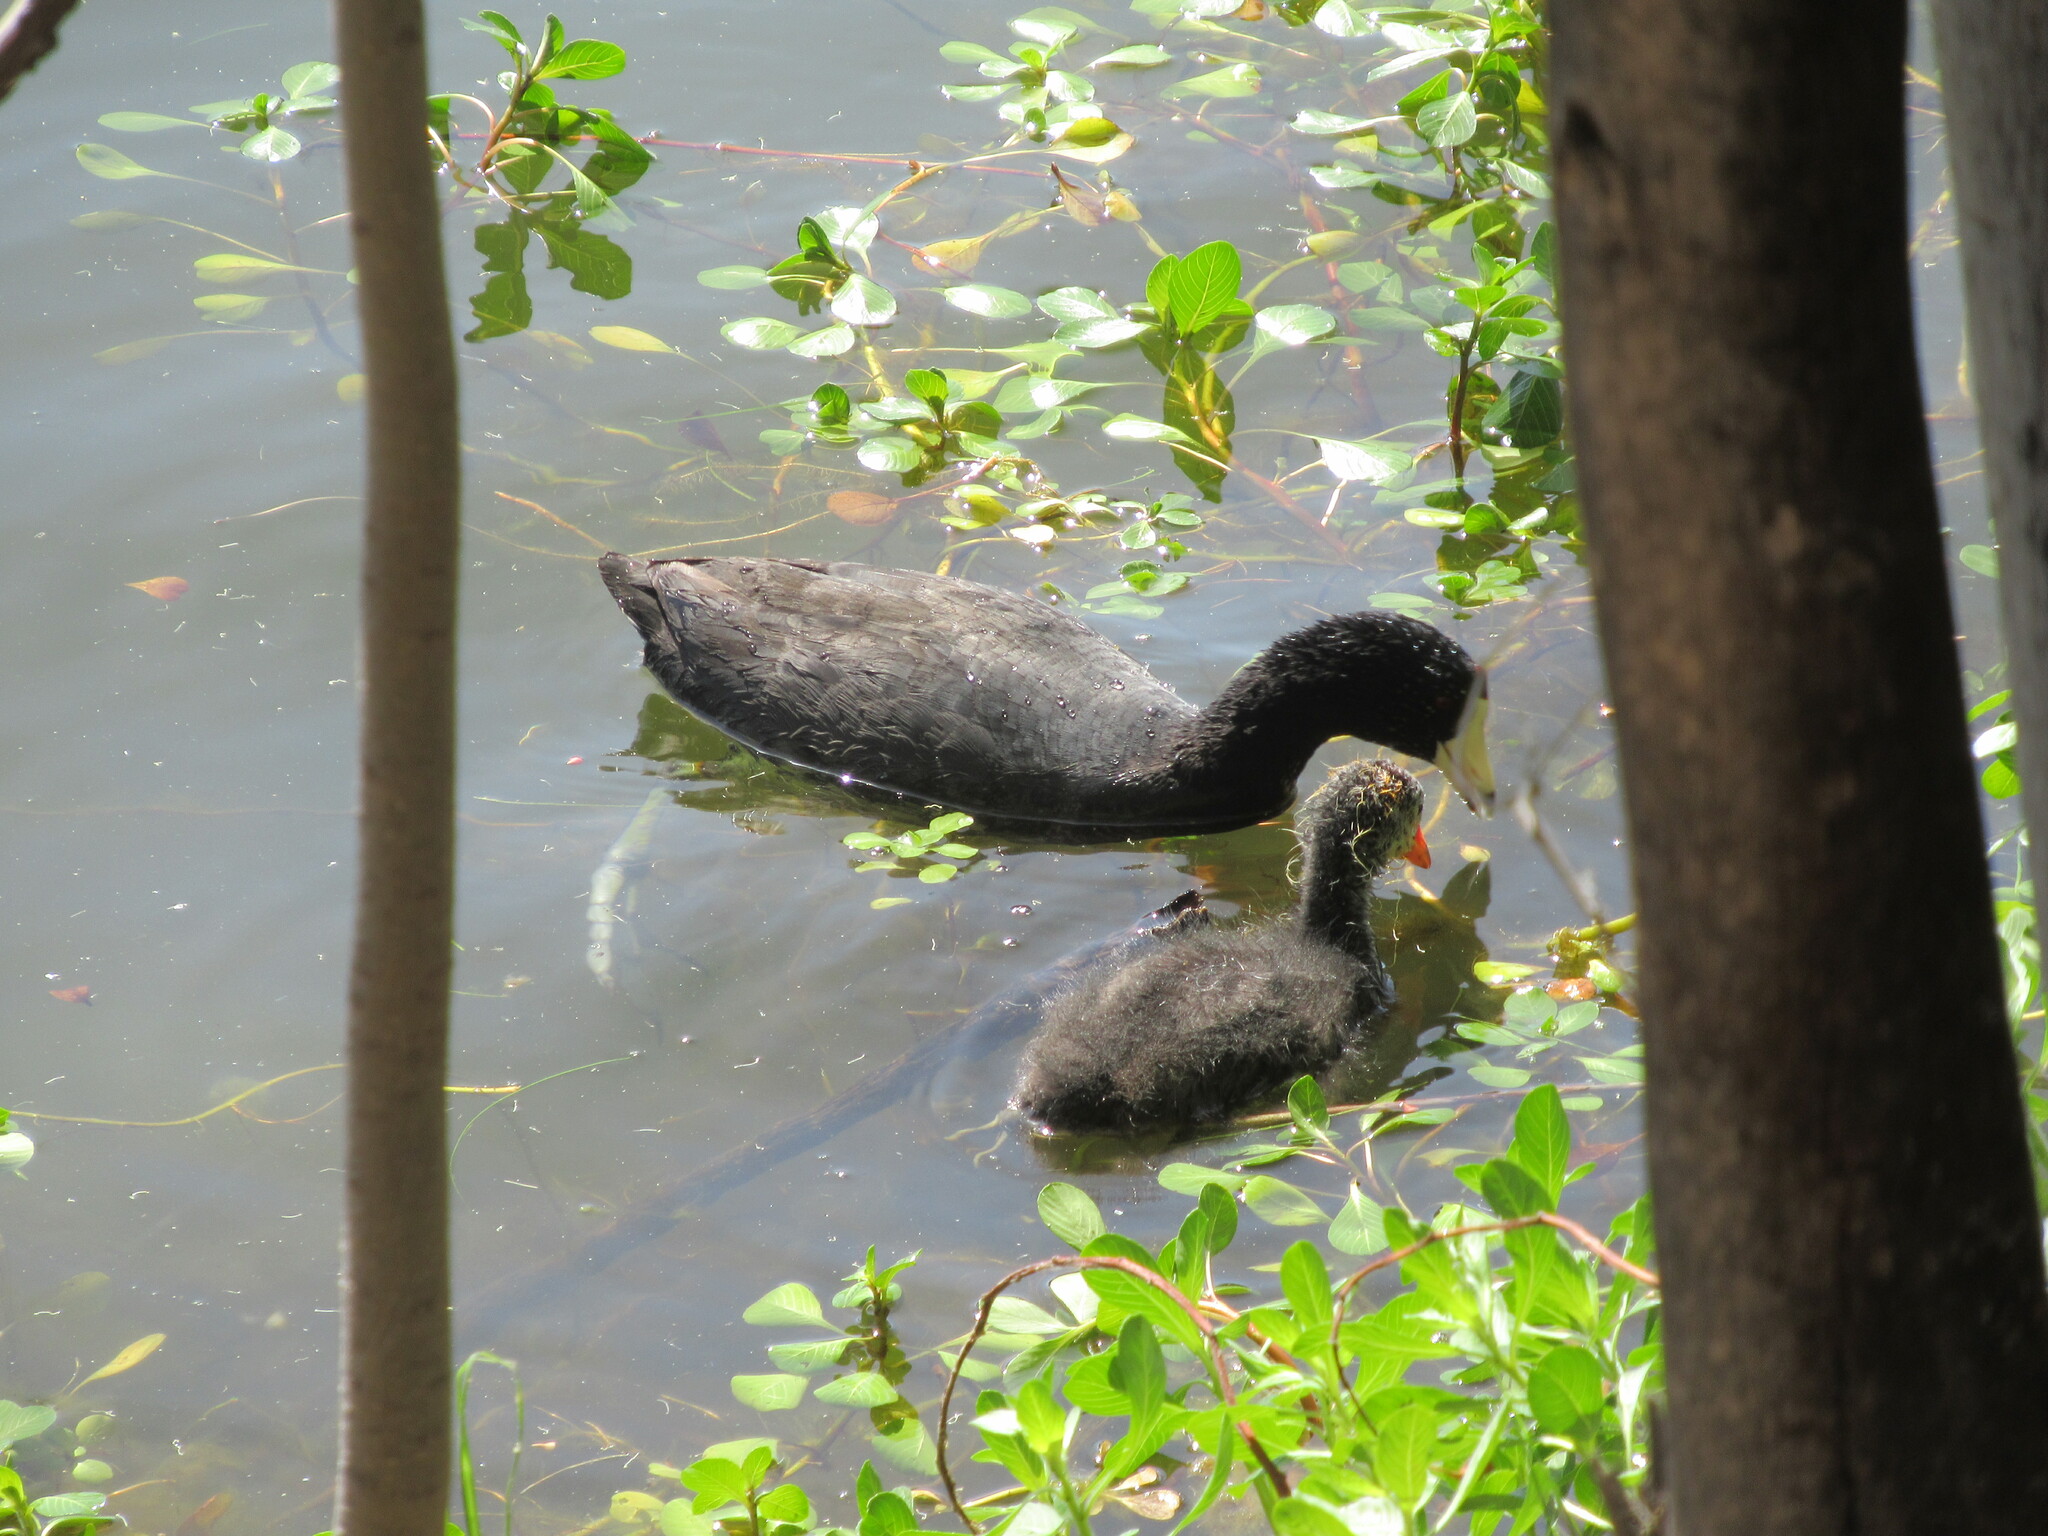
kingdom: Animalia
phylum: Chordata
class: Aves
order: Gruiformes
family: Rallidae
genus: Fulica
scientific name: Fulica americana
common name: American coot
